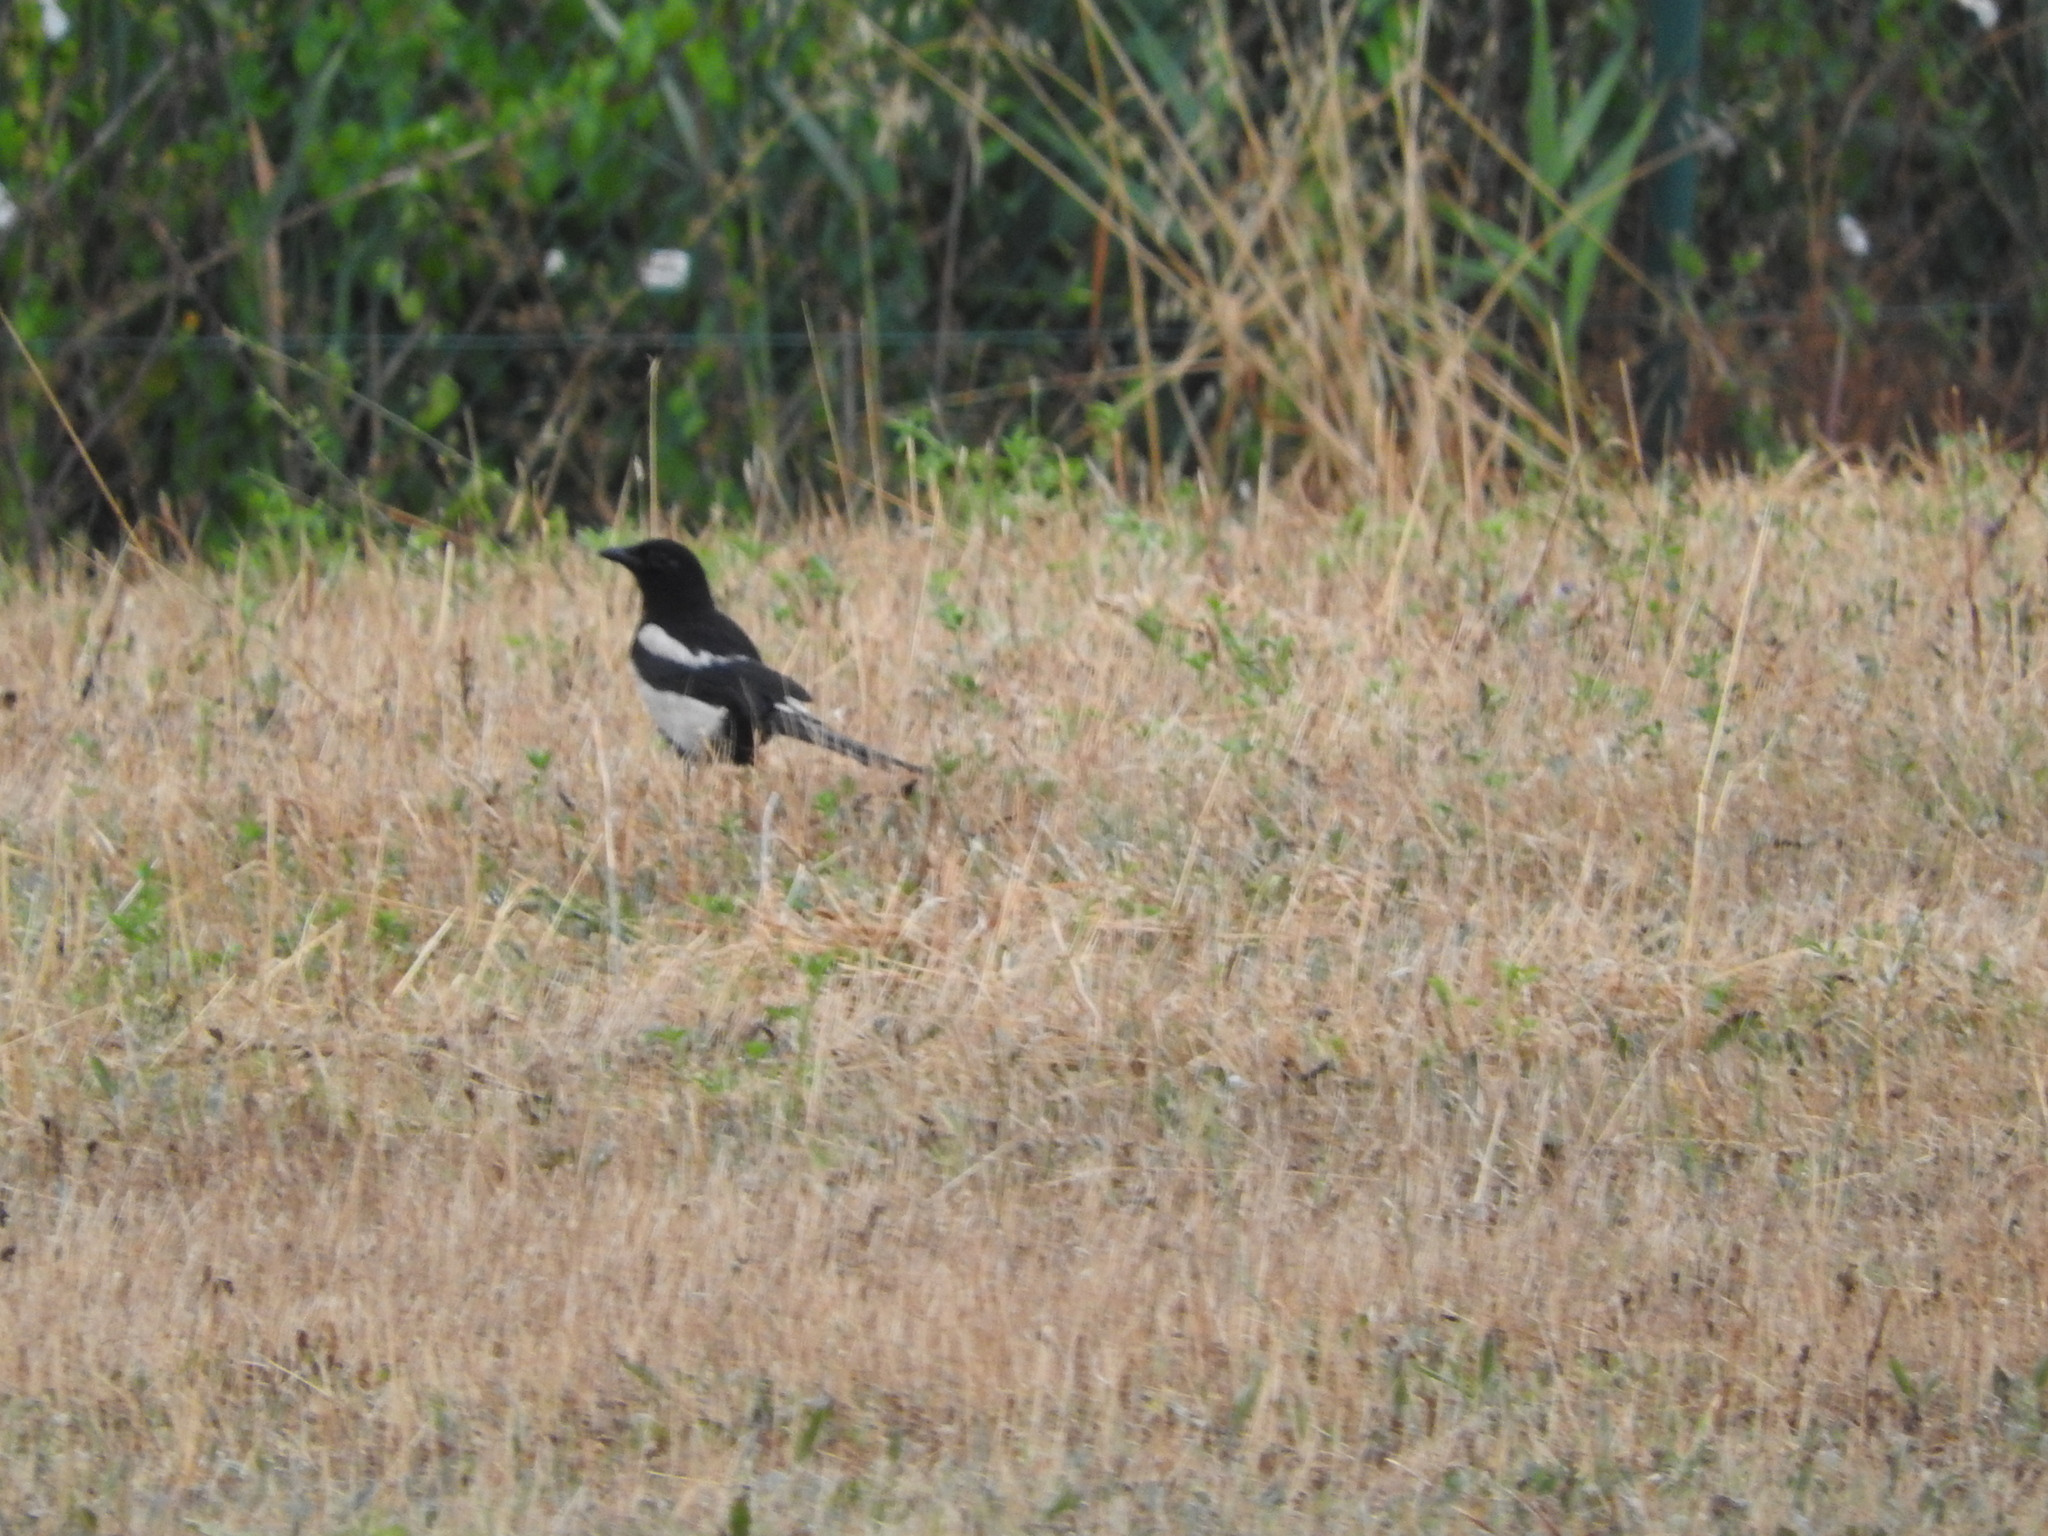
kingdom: Animalia
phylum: Chordata
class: Aves
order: Passeriformes
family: Corvidae
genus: Pica
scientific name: Pica pica
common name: Eurasian magpie
